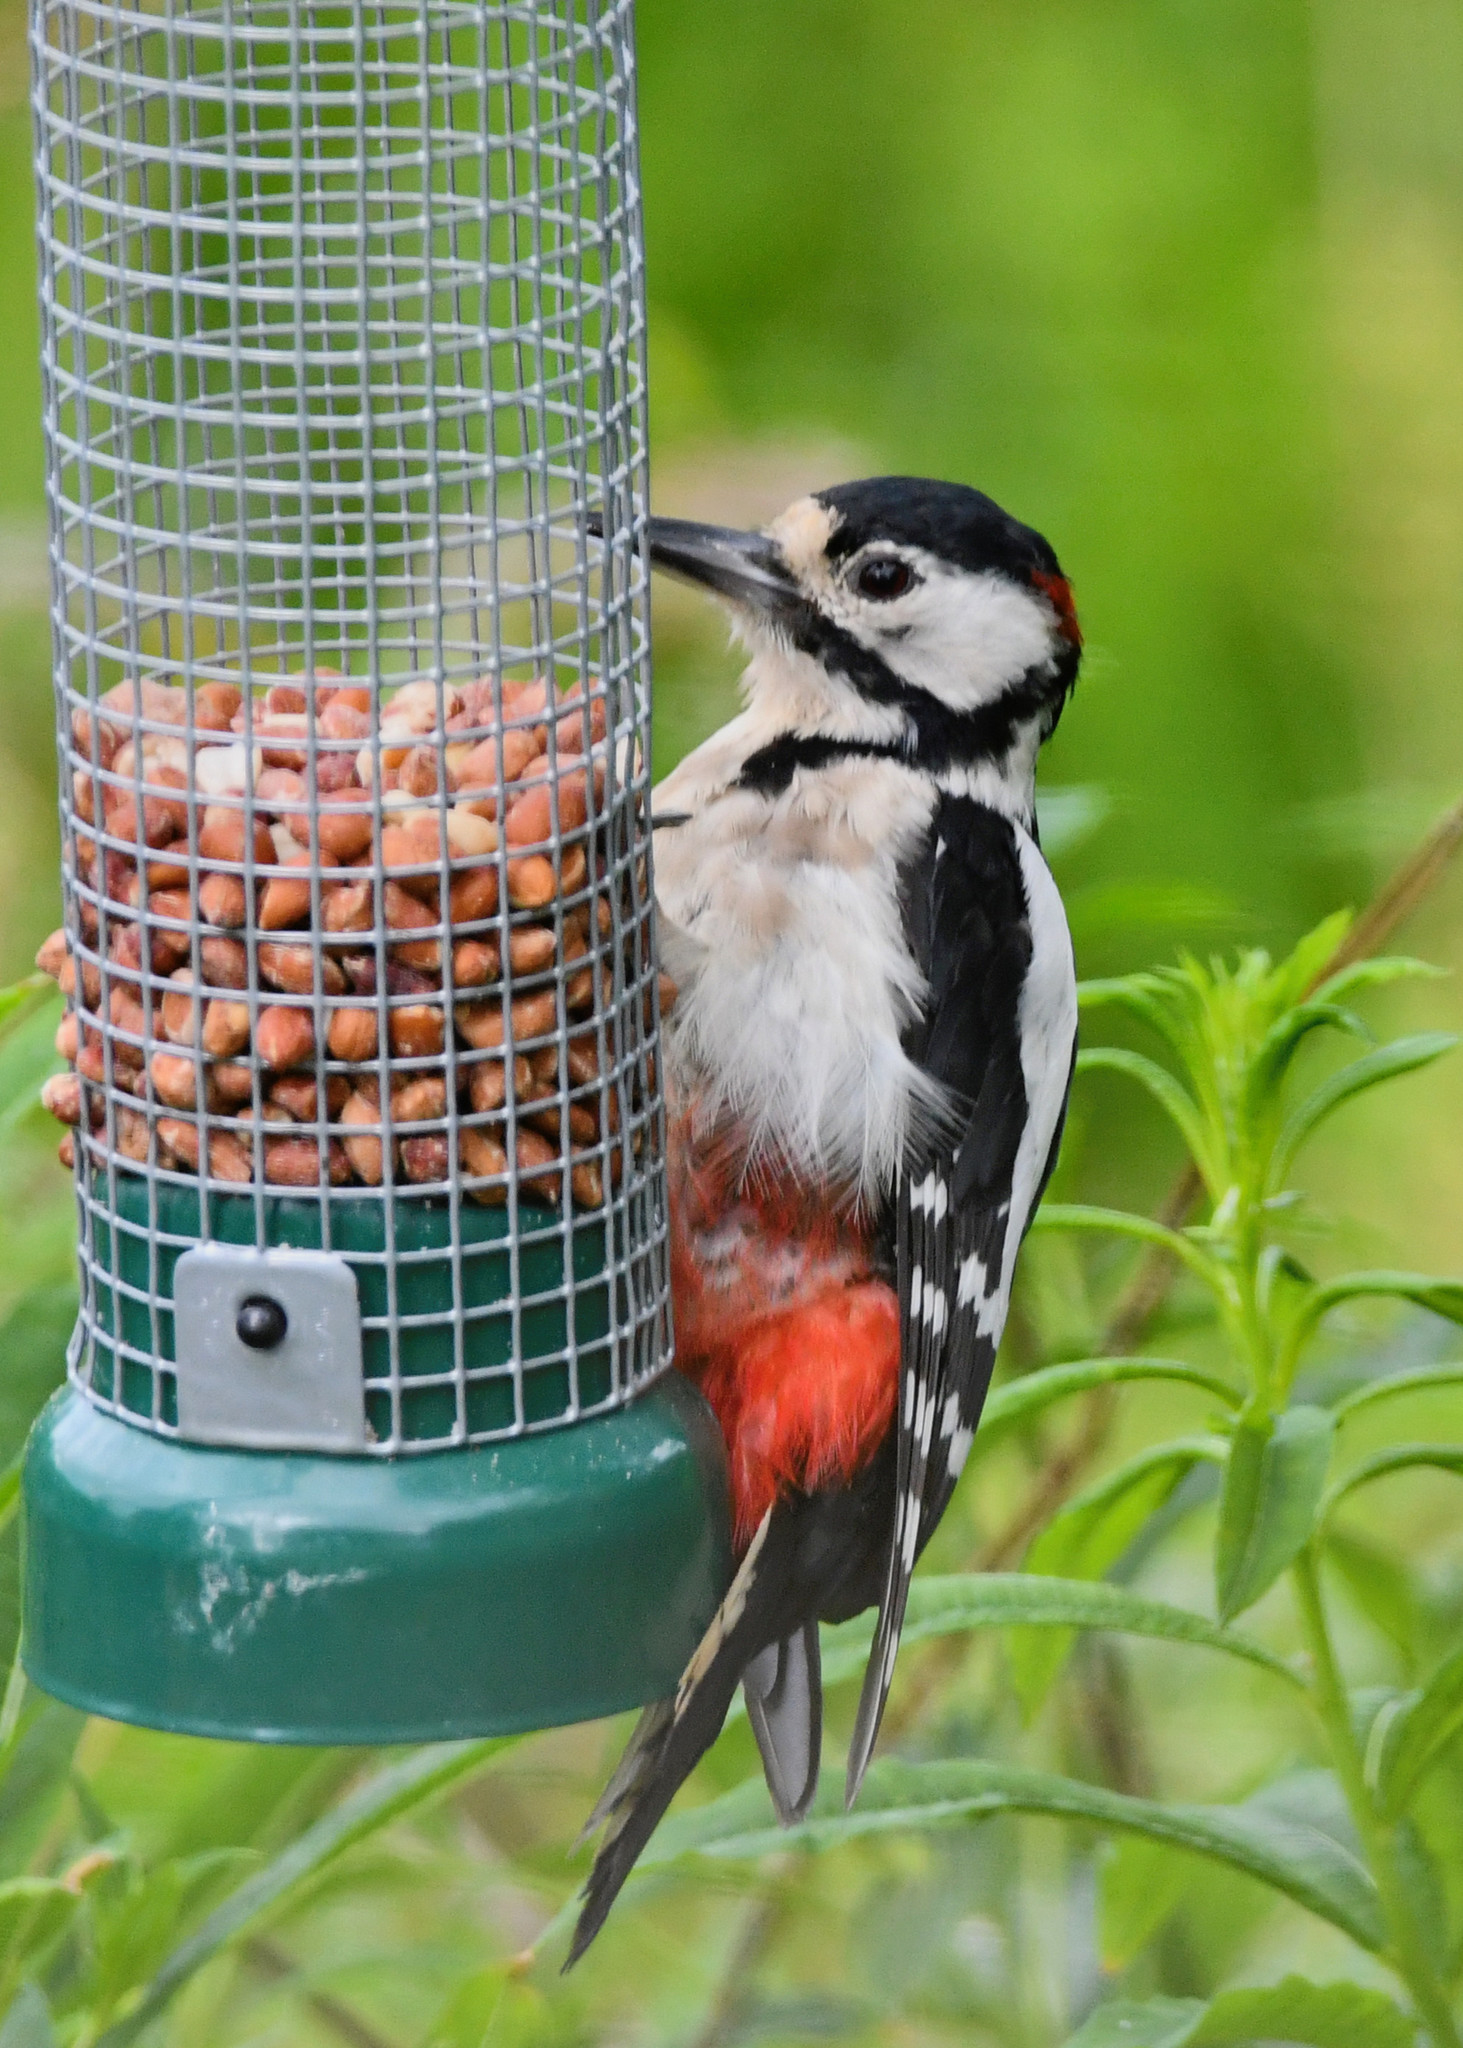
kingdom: Animalia
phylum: Chordata
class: Aves
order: Piciformes
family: Picidae
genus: Dendrocopos
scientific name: Dendrocopos major
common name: Great spotted woodpecker
